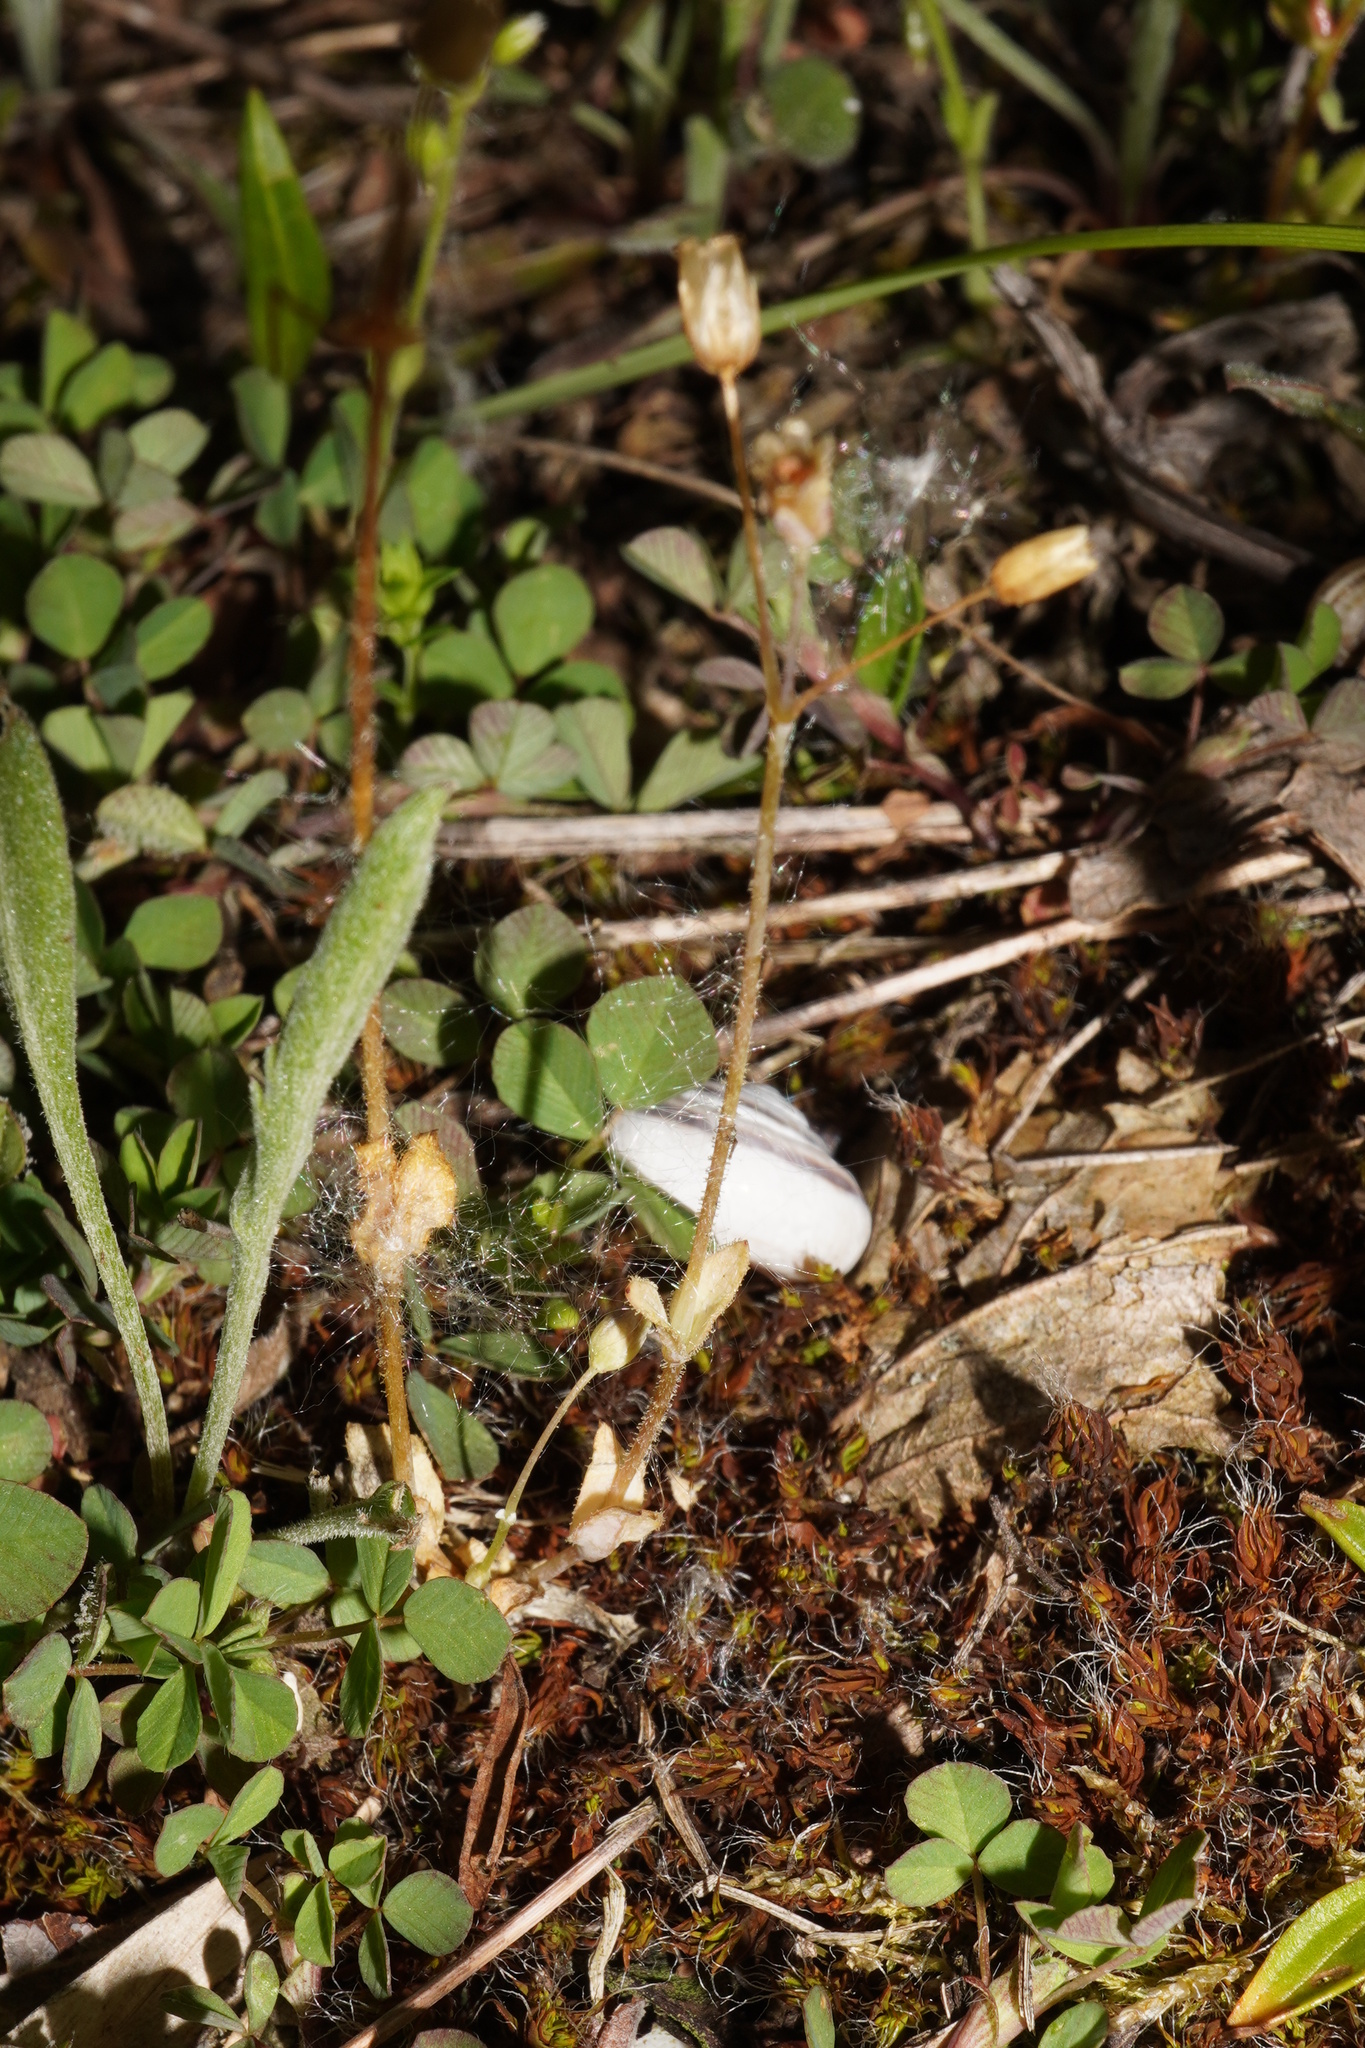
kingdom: Plantae
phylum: Tracheophyta
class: Magnoliopsida
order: Caryophyllales
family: Caryophyllaceae
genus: Holosteum
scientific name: Holosteum umbellatum
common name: Jagged chickweed
